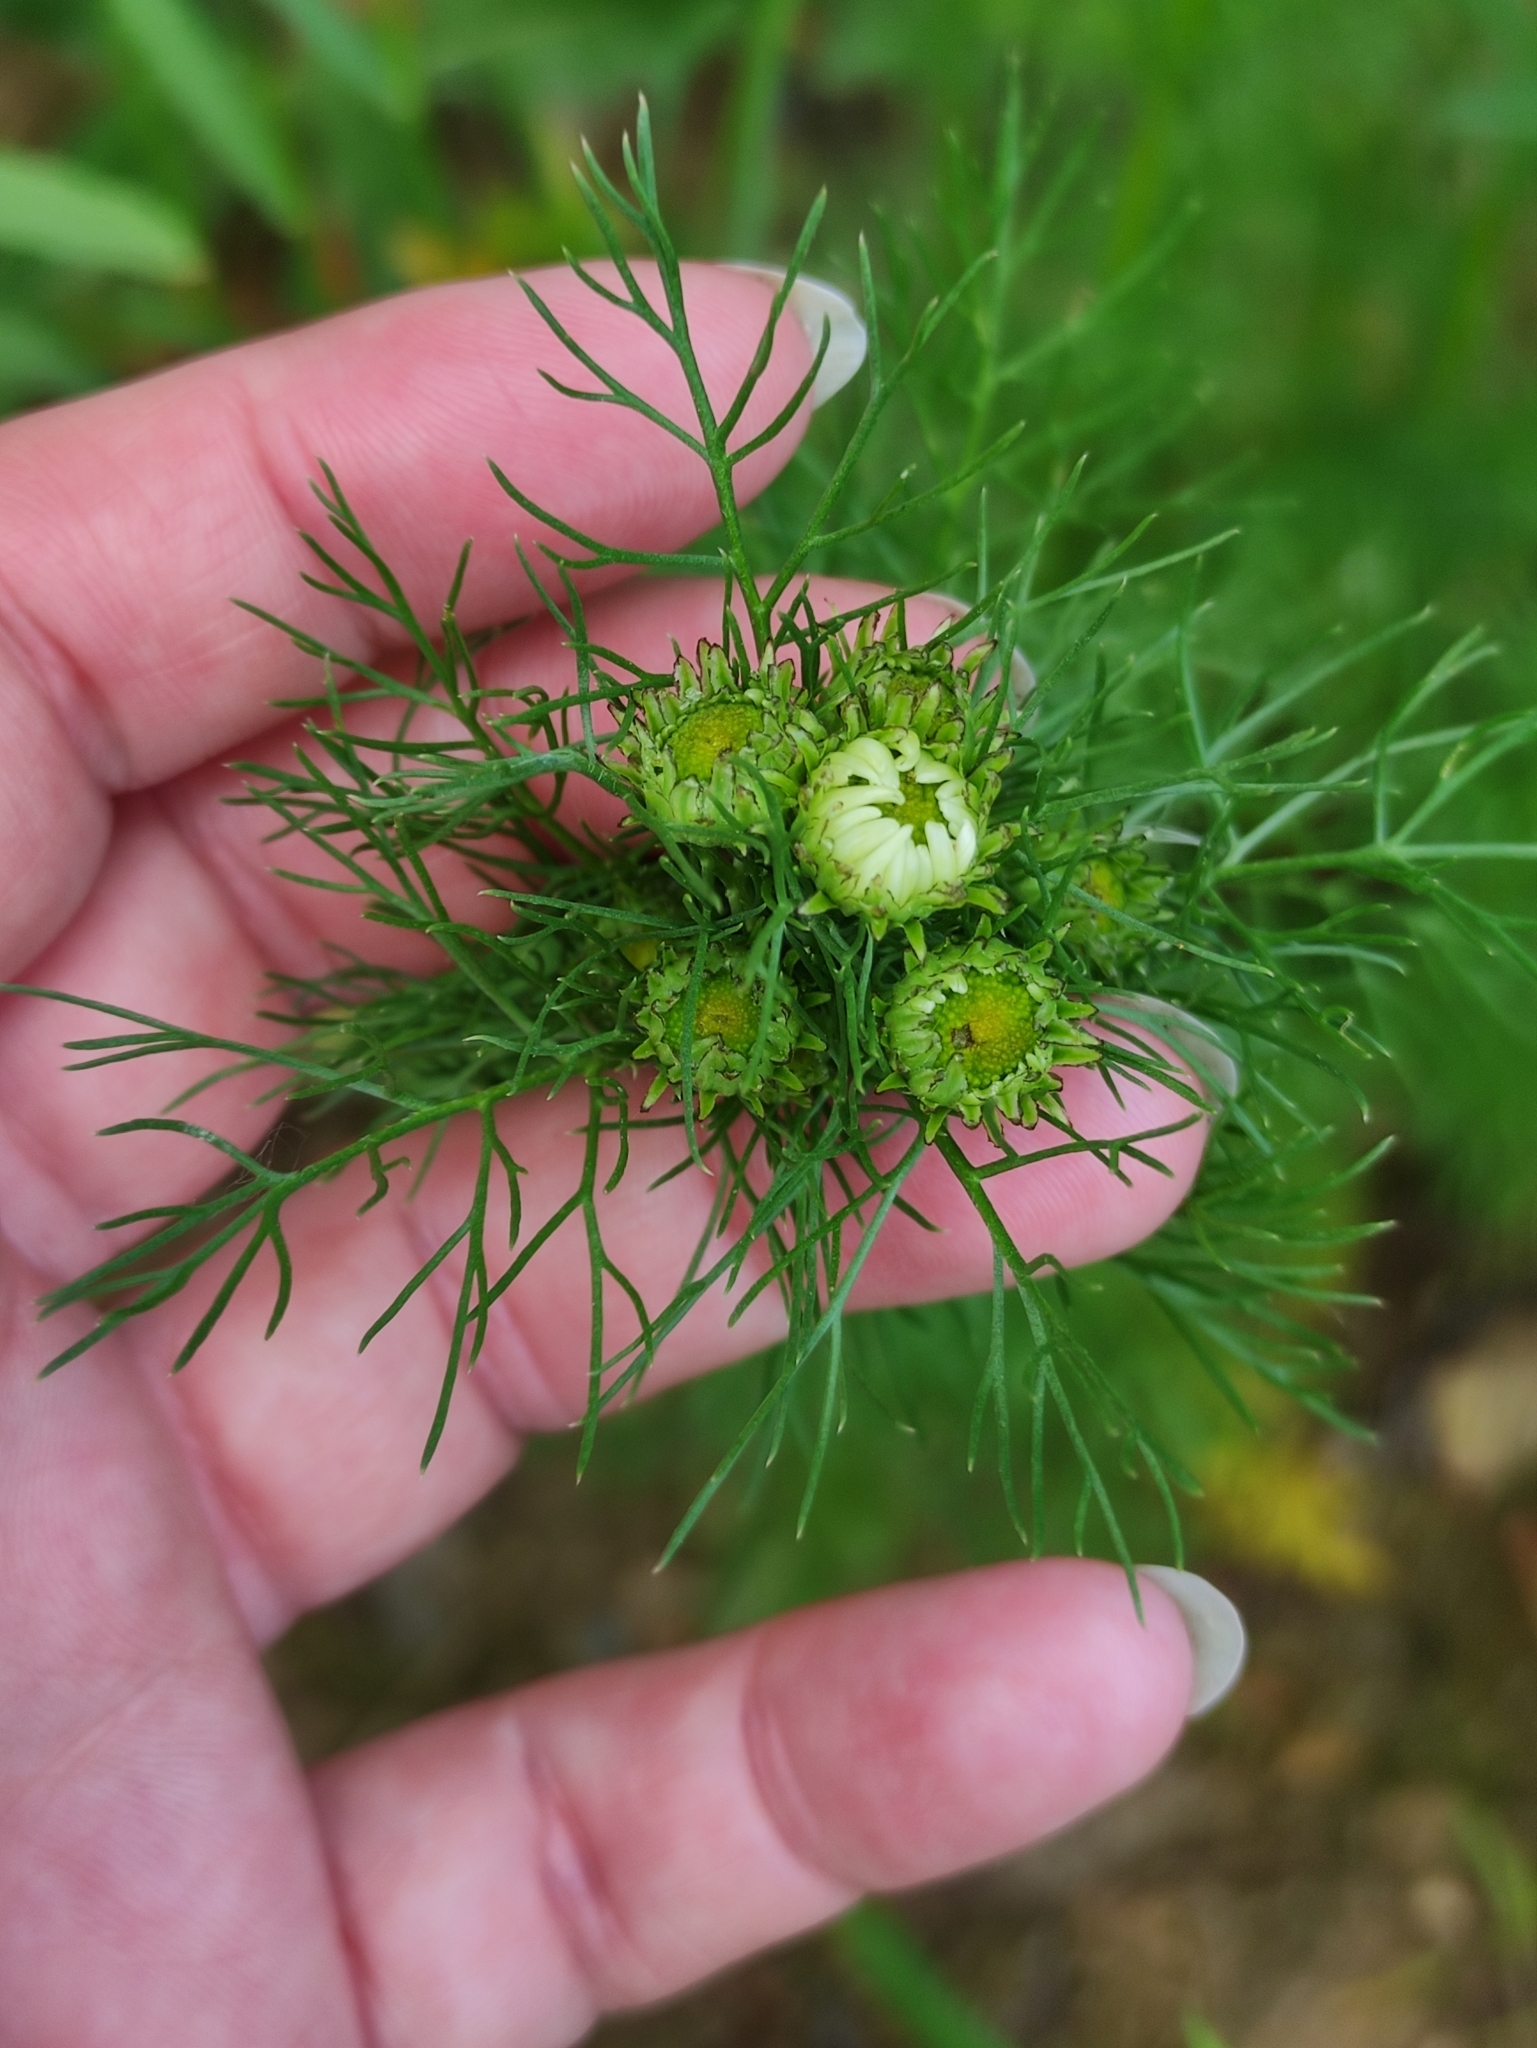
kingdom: Plantae
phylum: Tracheophyta
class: Magnoliopsida
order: Asterales
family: Asteraceae
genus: Tripleurospermum
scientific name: Tripleurospermum inodorum
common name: Scentless mayweed
